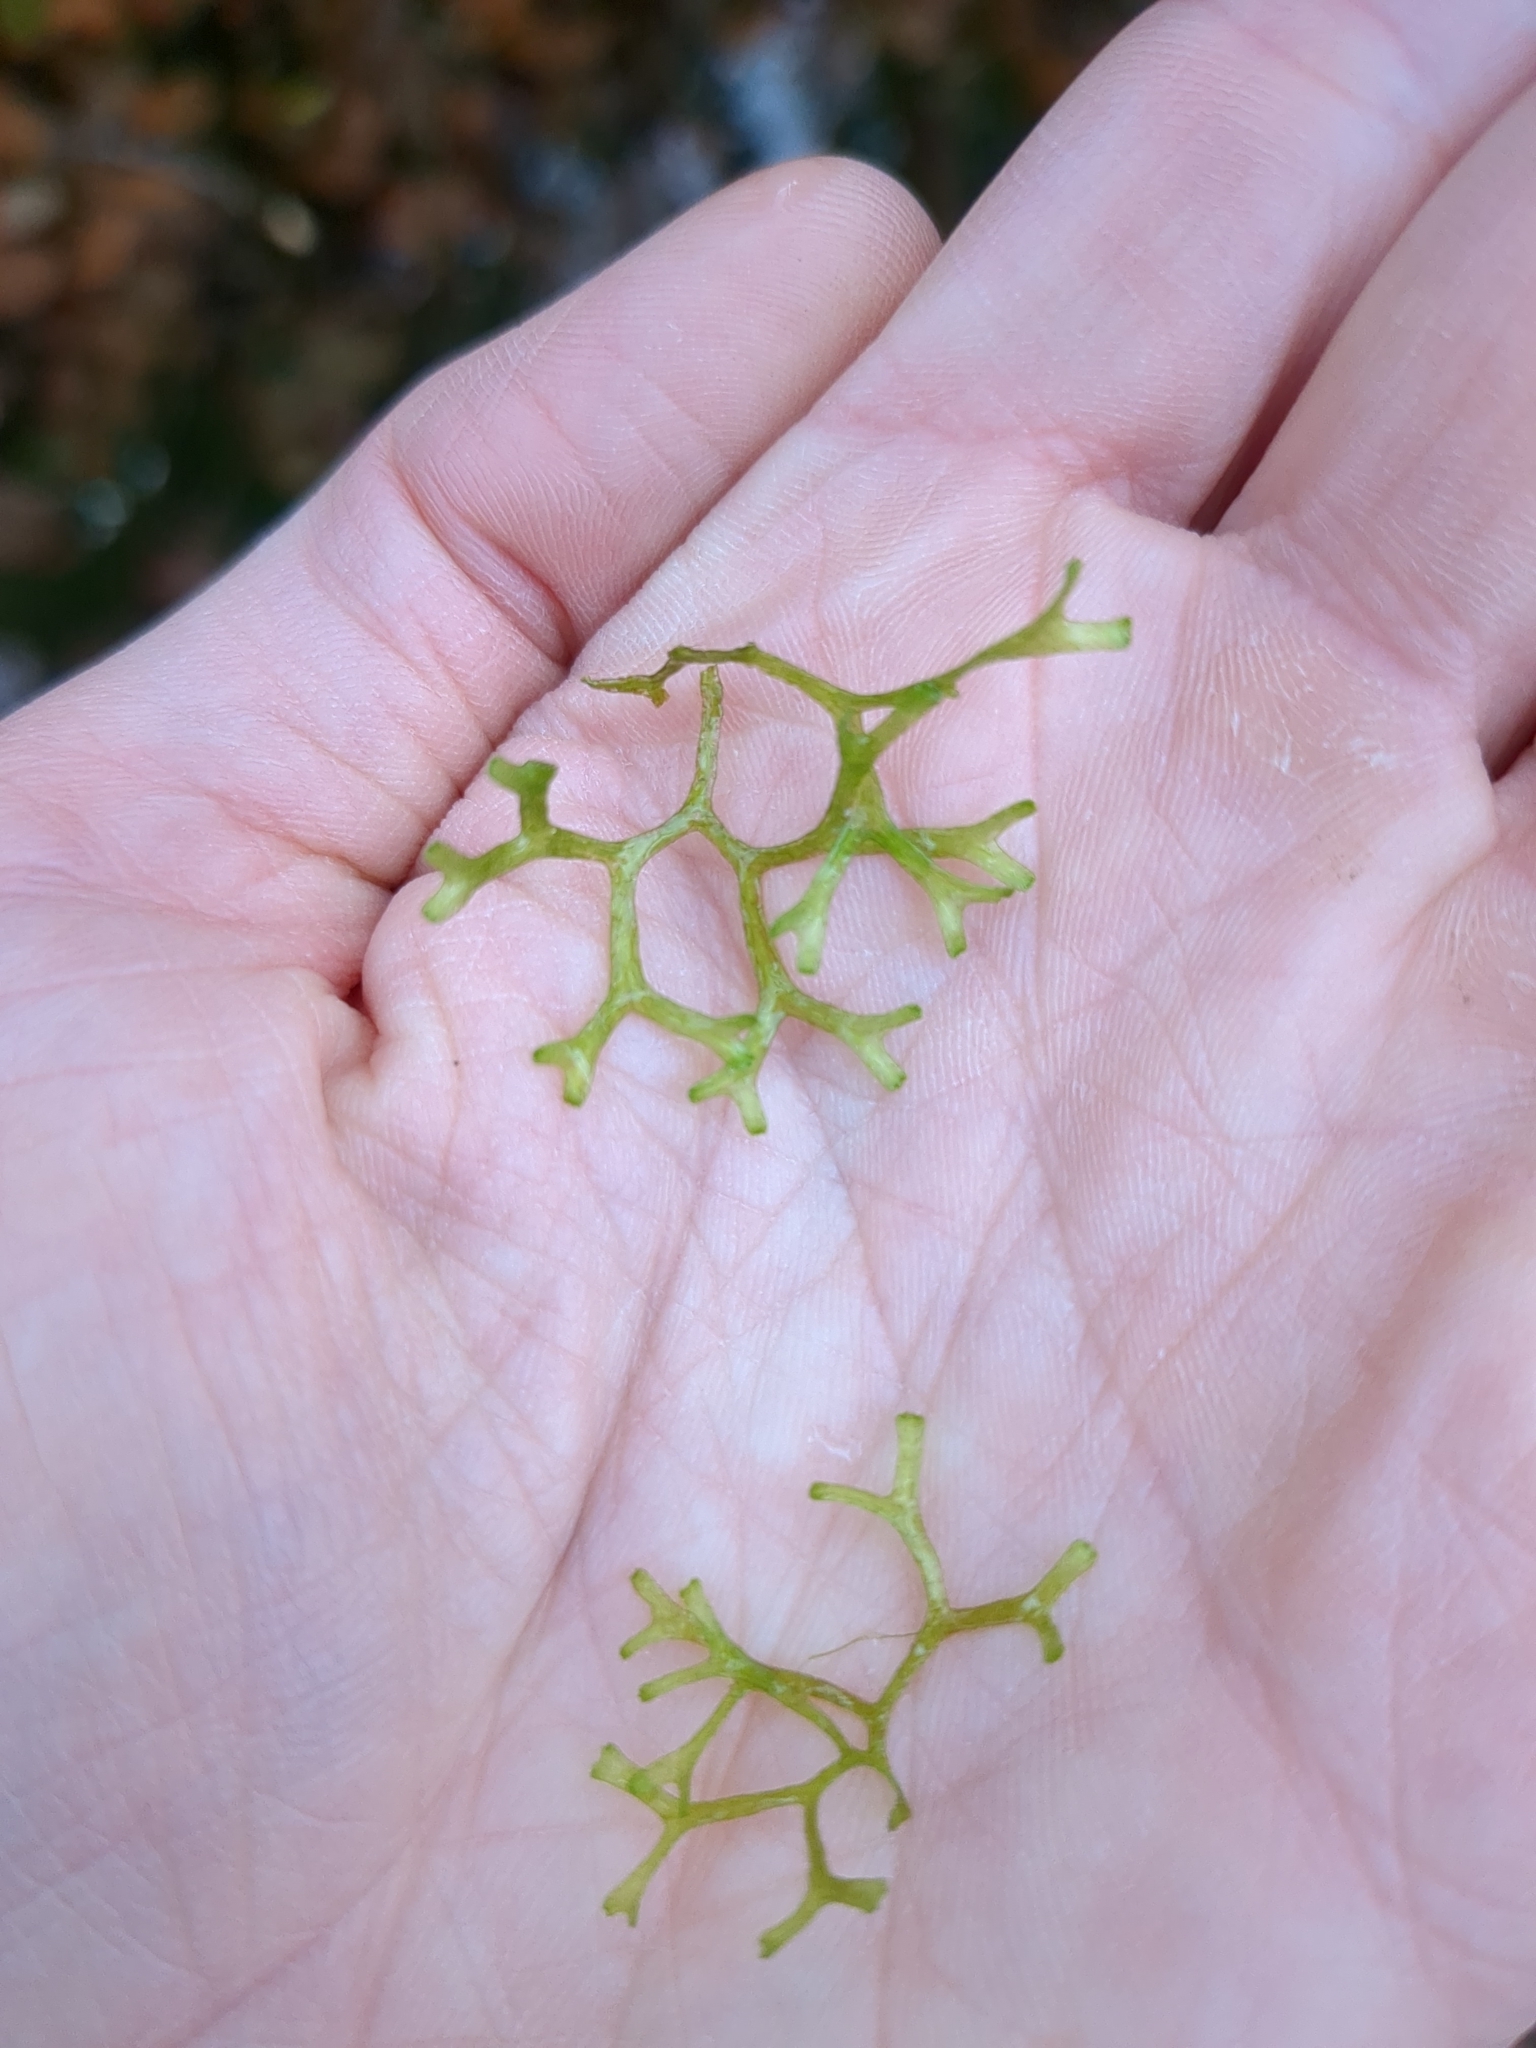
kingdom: Plantae
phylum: Marchantiophyta
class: Marchantiopsida
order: Marchantiales
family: Ricciaceae
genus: Riccia
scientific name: Riccia fluitans
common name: Floating crystalwort
